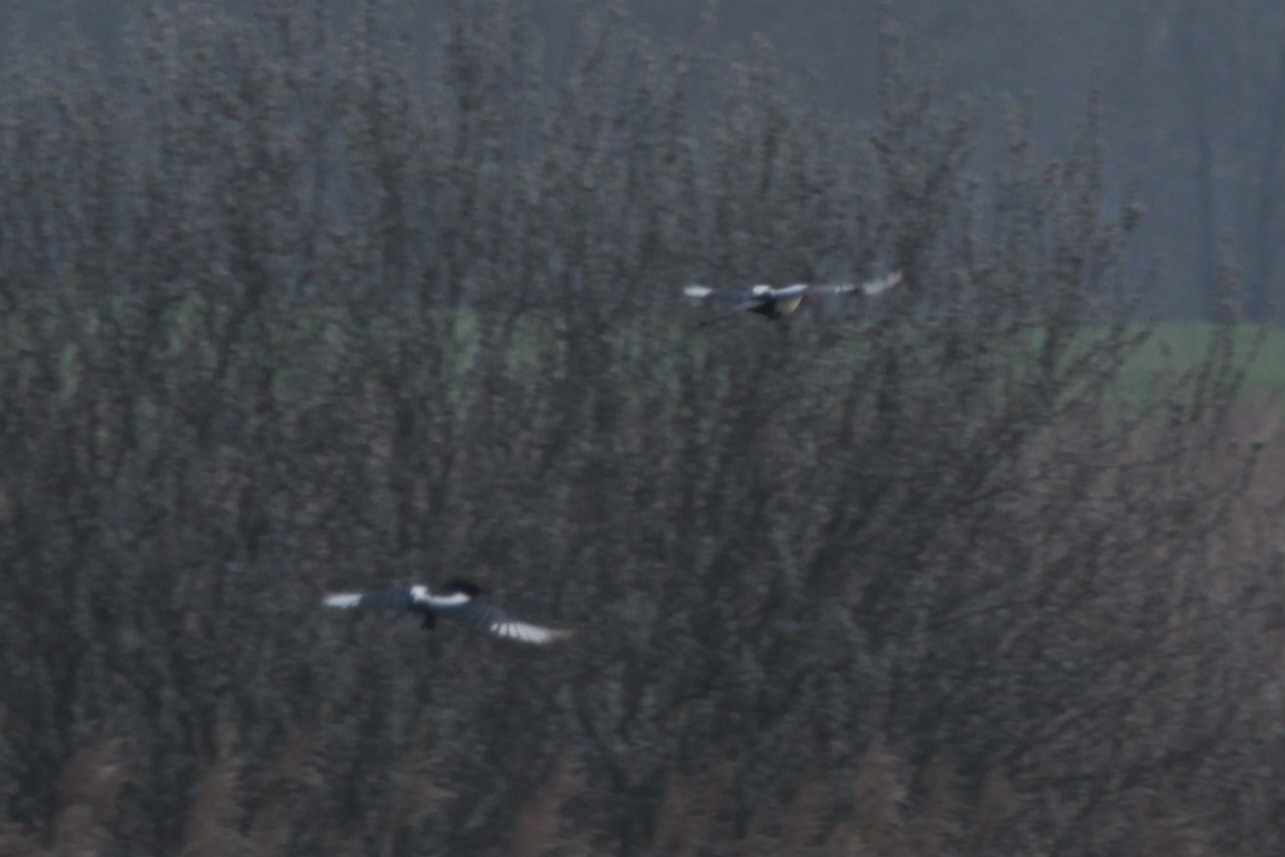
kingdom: Animalia
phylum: Chordata
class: Aves
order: Passeriformes
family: Corvidae
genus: Pica
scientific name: Pica pica
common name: Eurasian magpie
